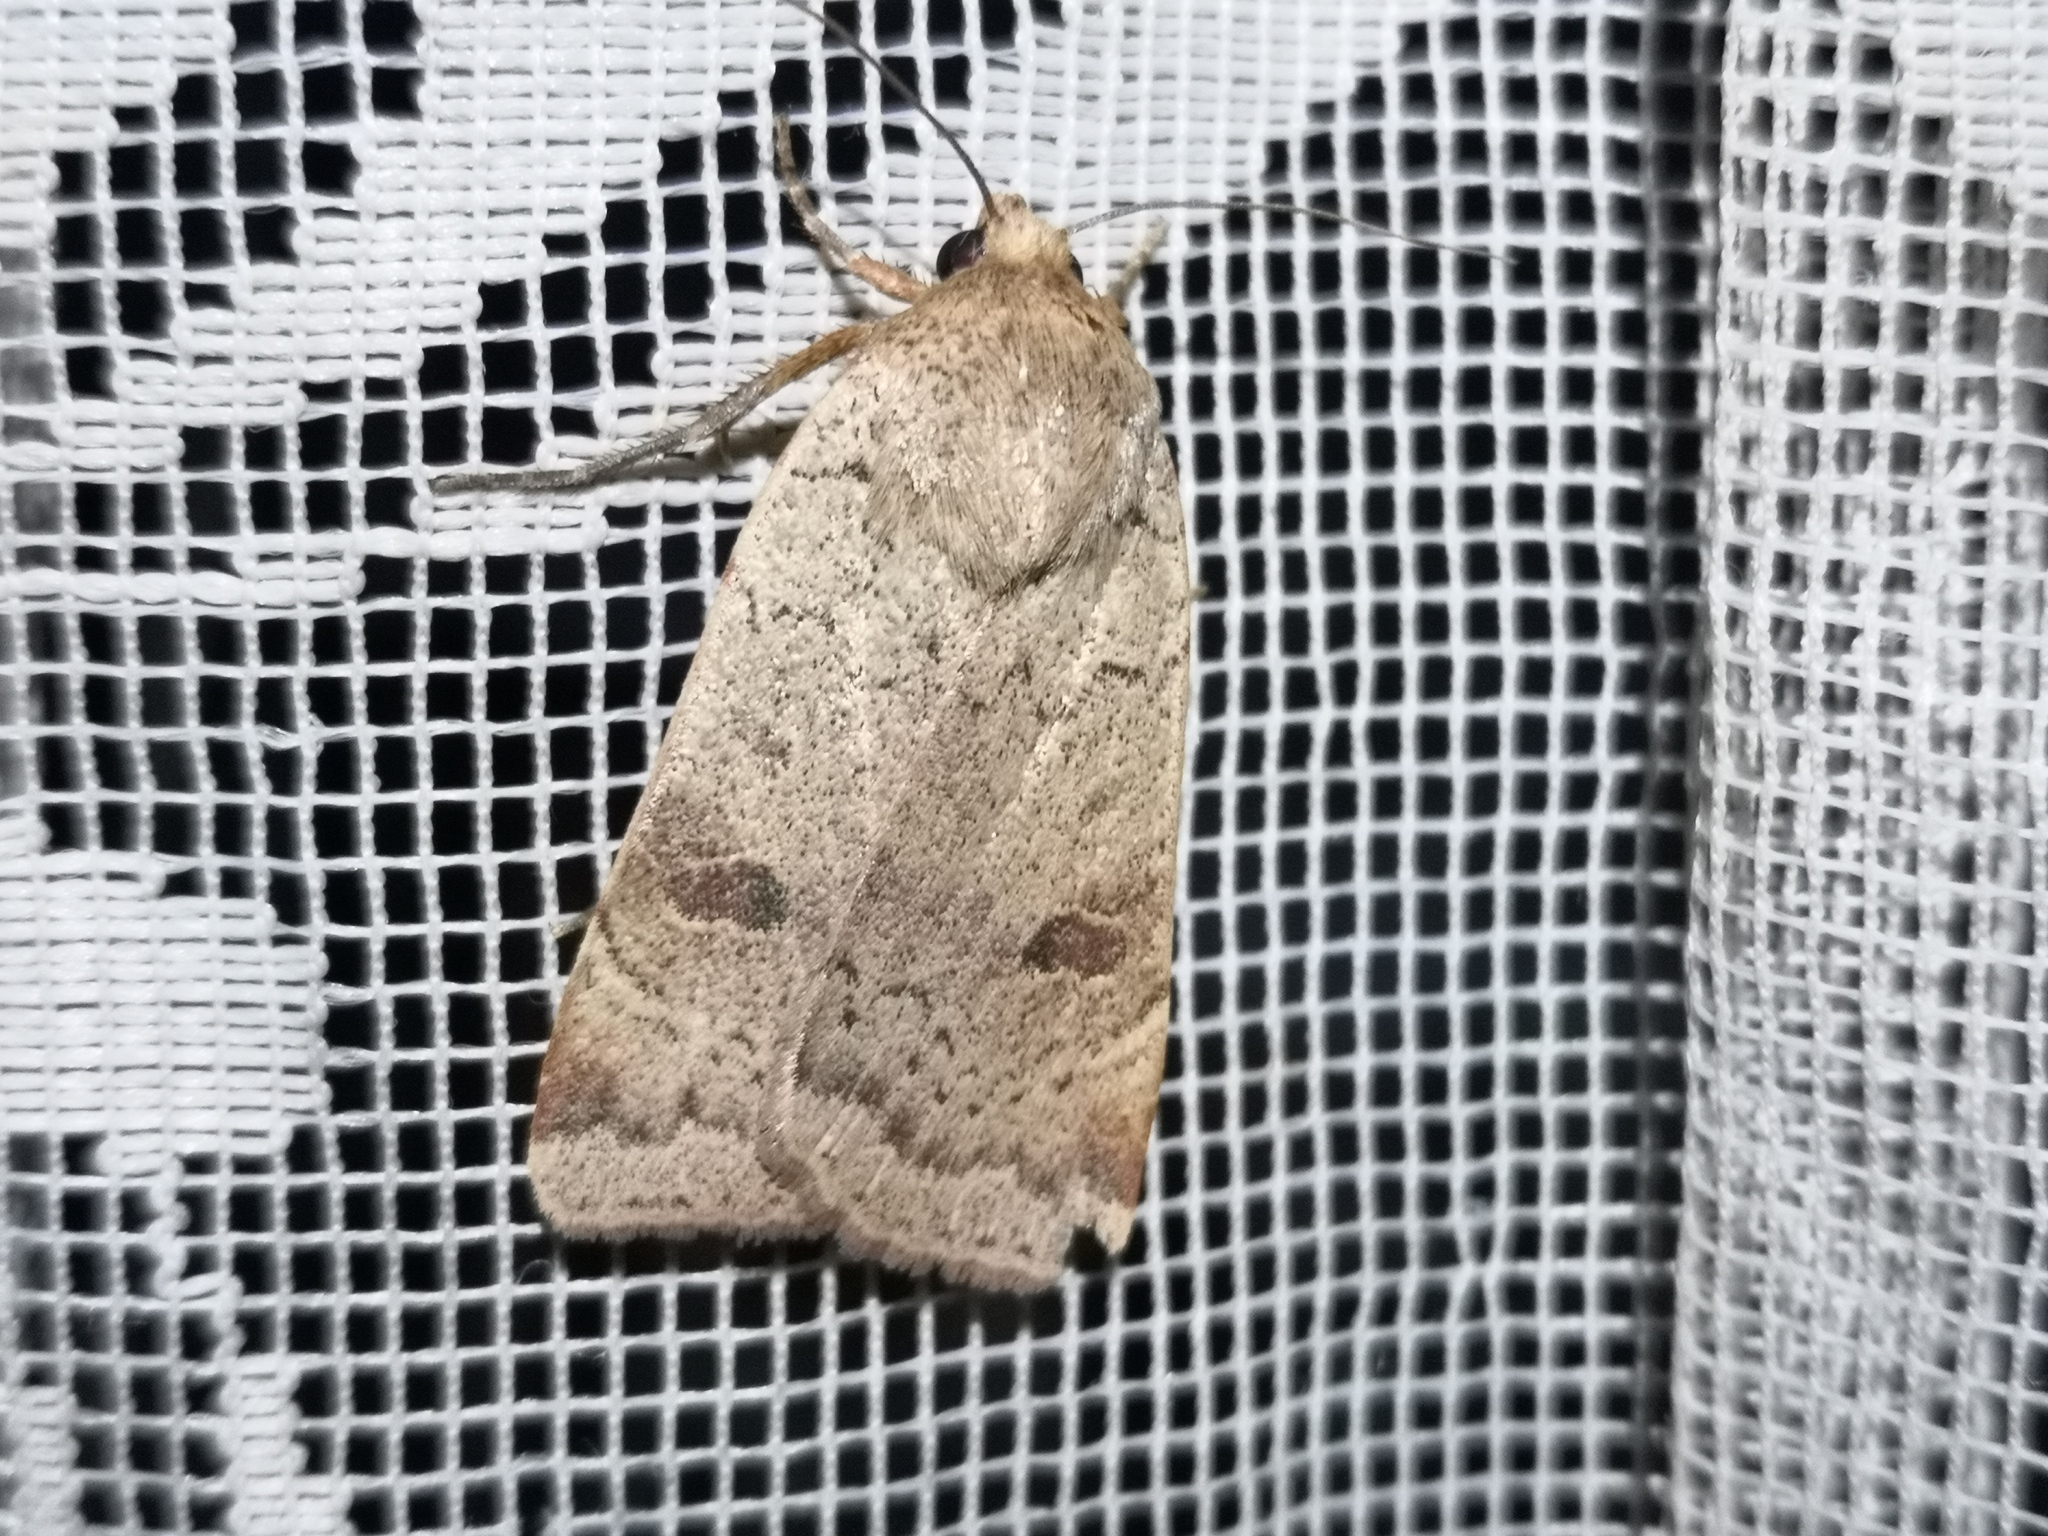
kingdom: Animalia
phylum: Arthropoda
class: Insecta
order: Lepidoptera
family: Noctuidae
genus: Noctua
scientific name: Noctua comes
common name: Lesser yellow underwing
